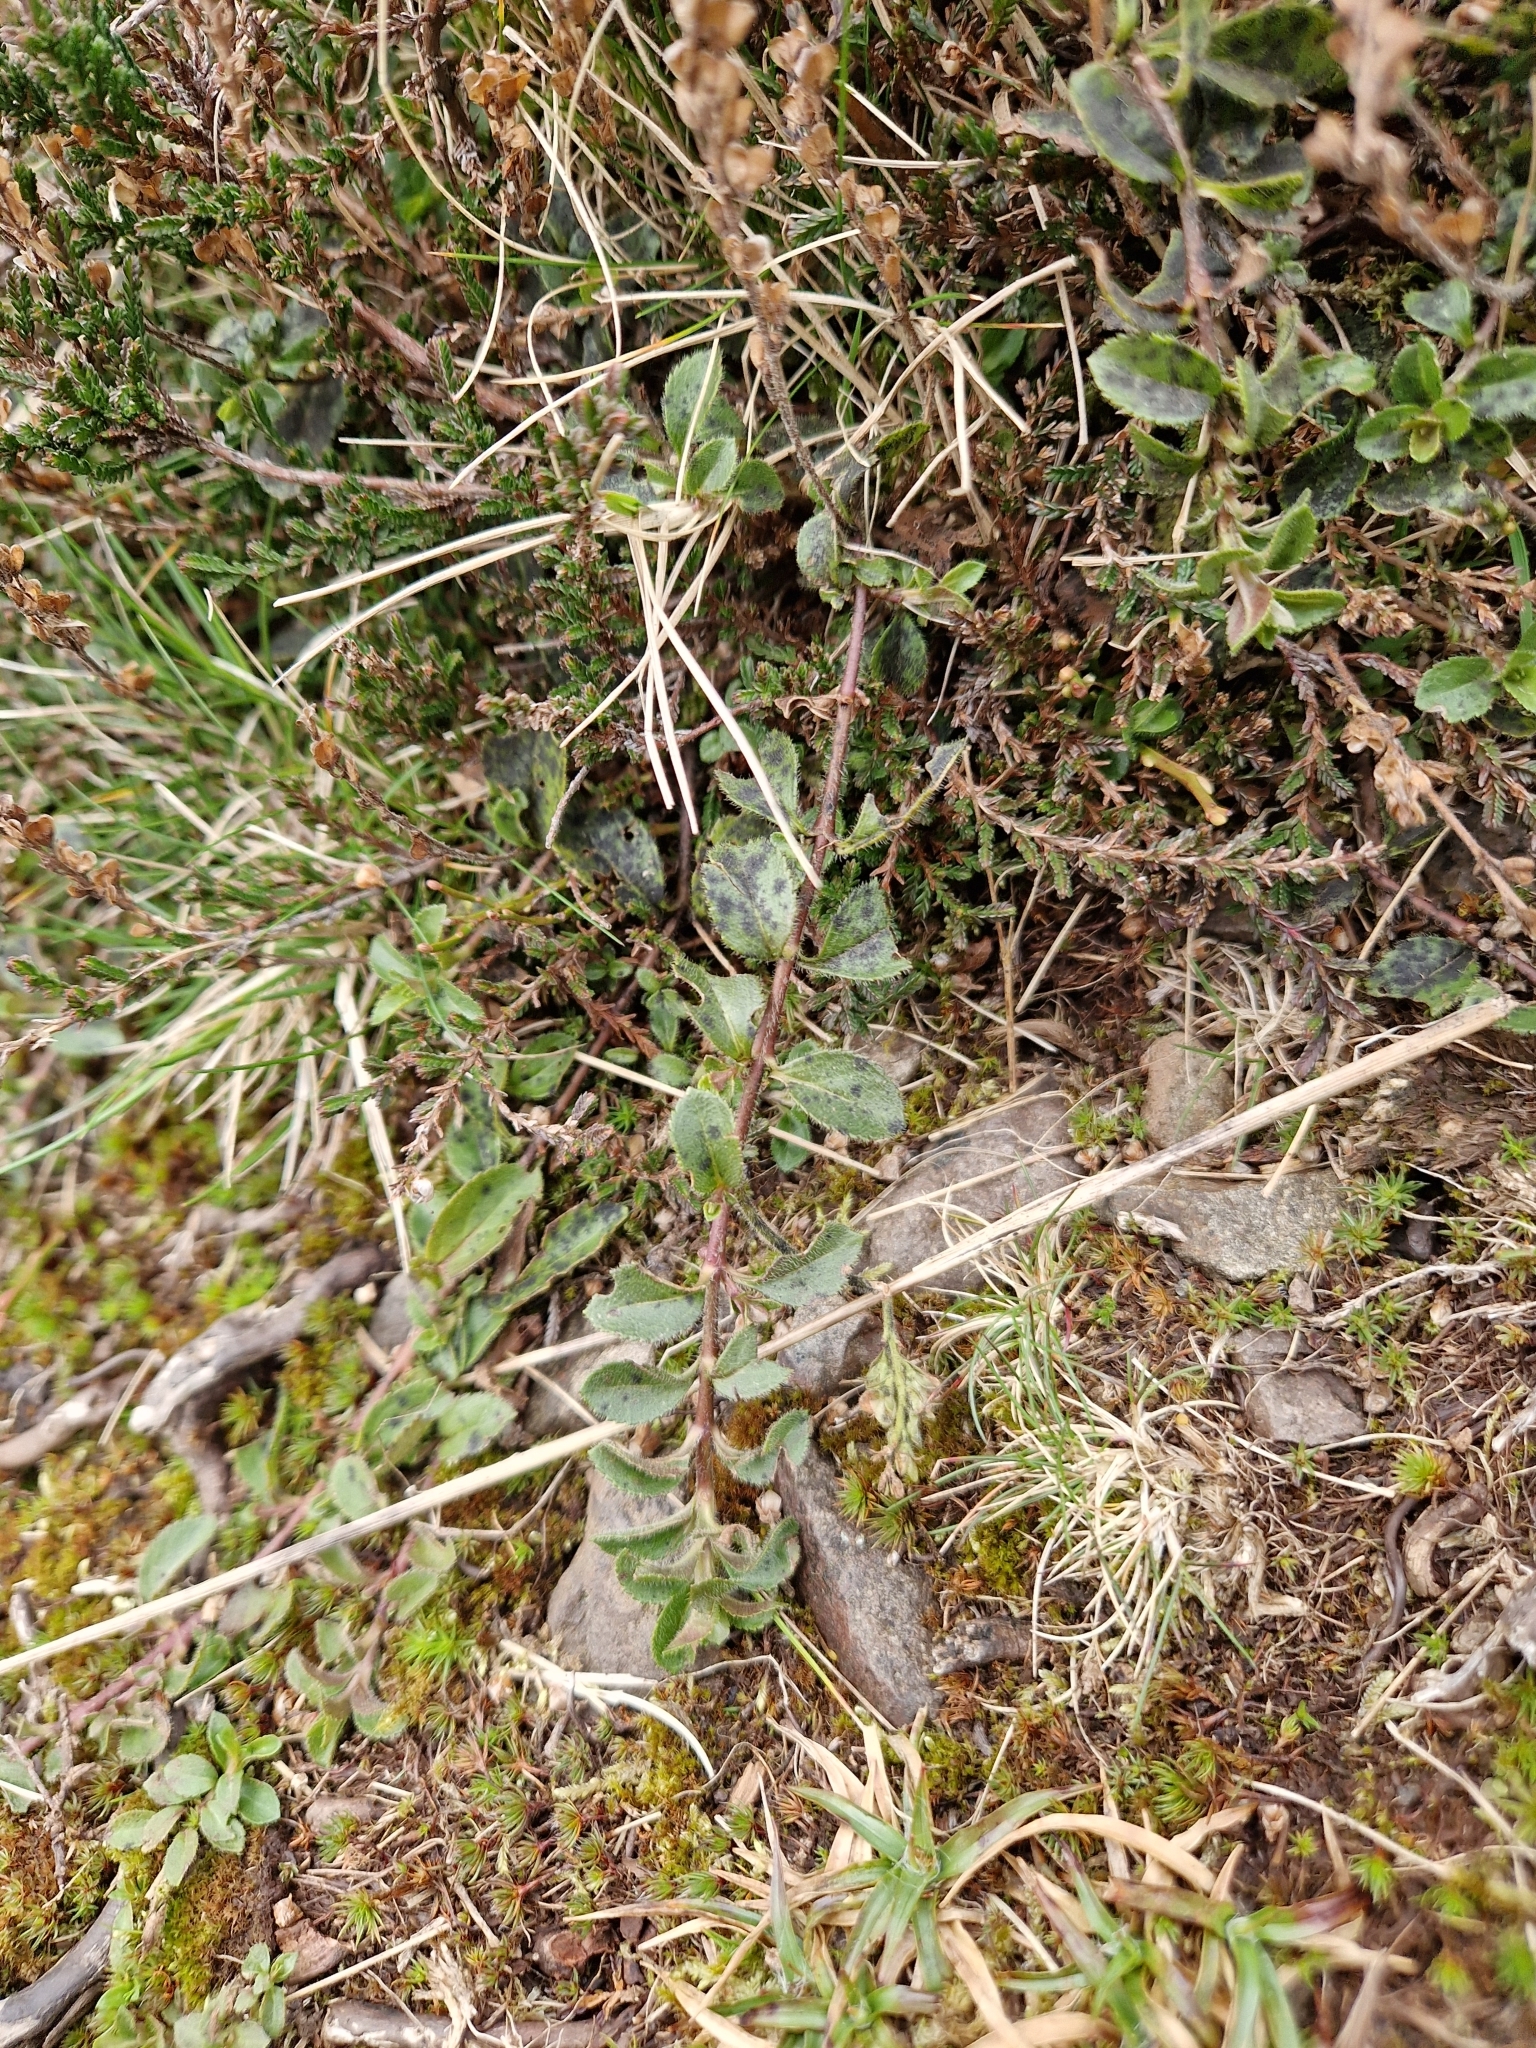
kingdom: Plantae
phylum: Tracheophyta
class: Magnoliopsida
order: Lamiales
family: Plantaginaceae
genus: Veronica
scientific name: Veronica officinalis
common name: Common speedwell
